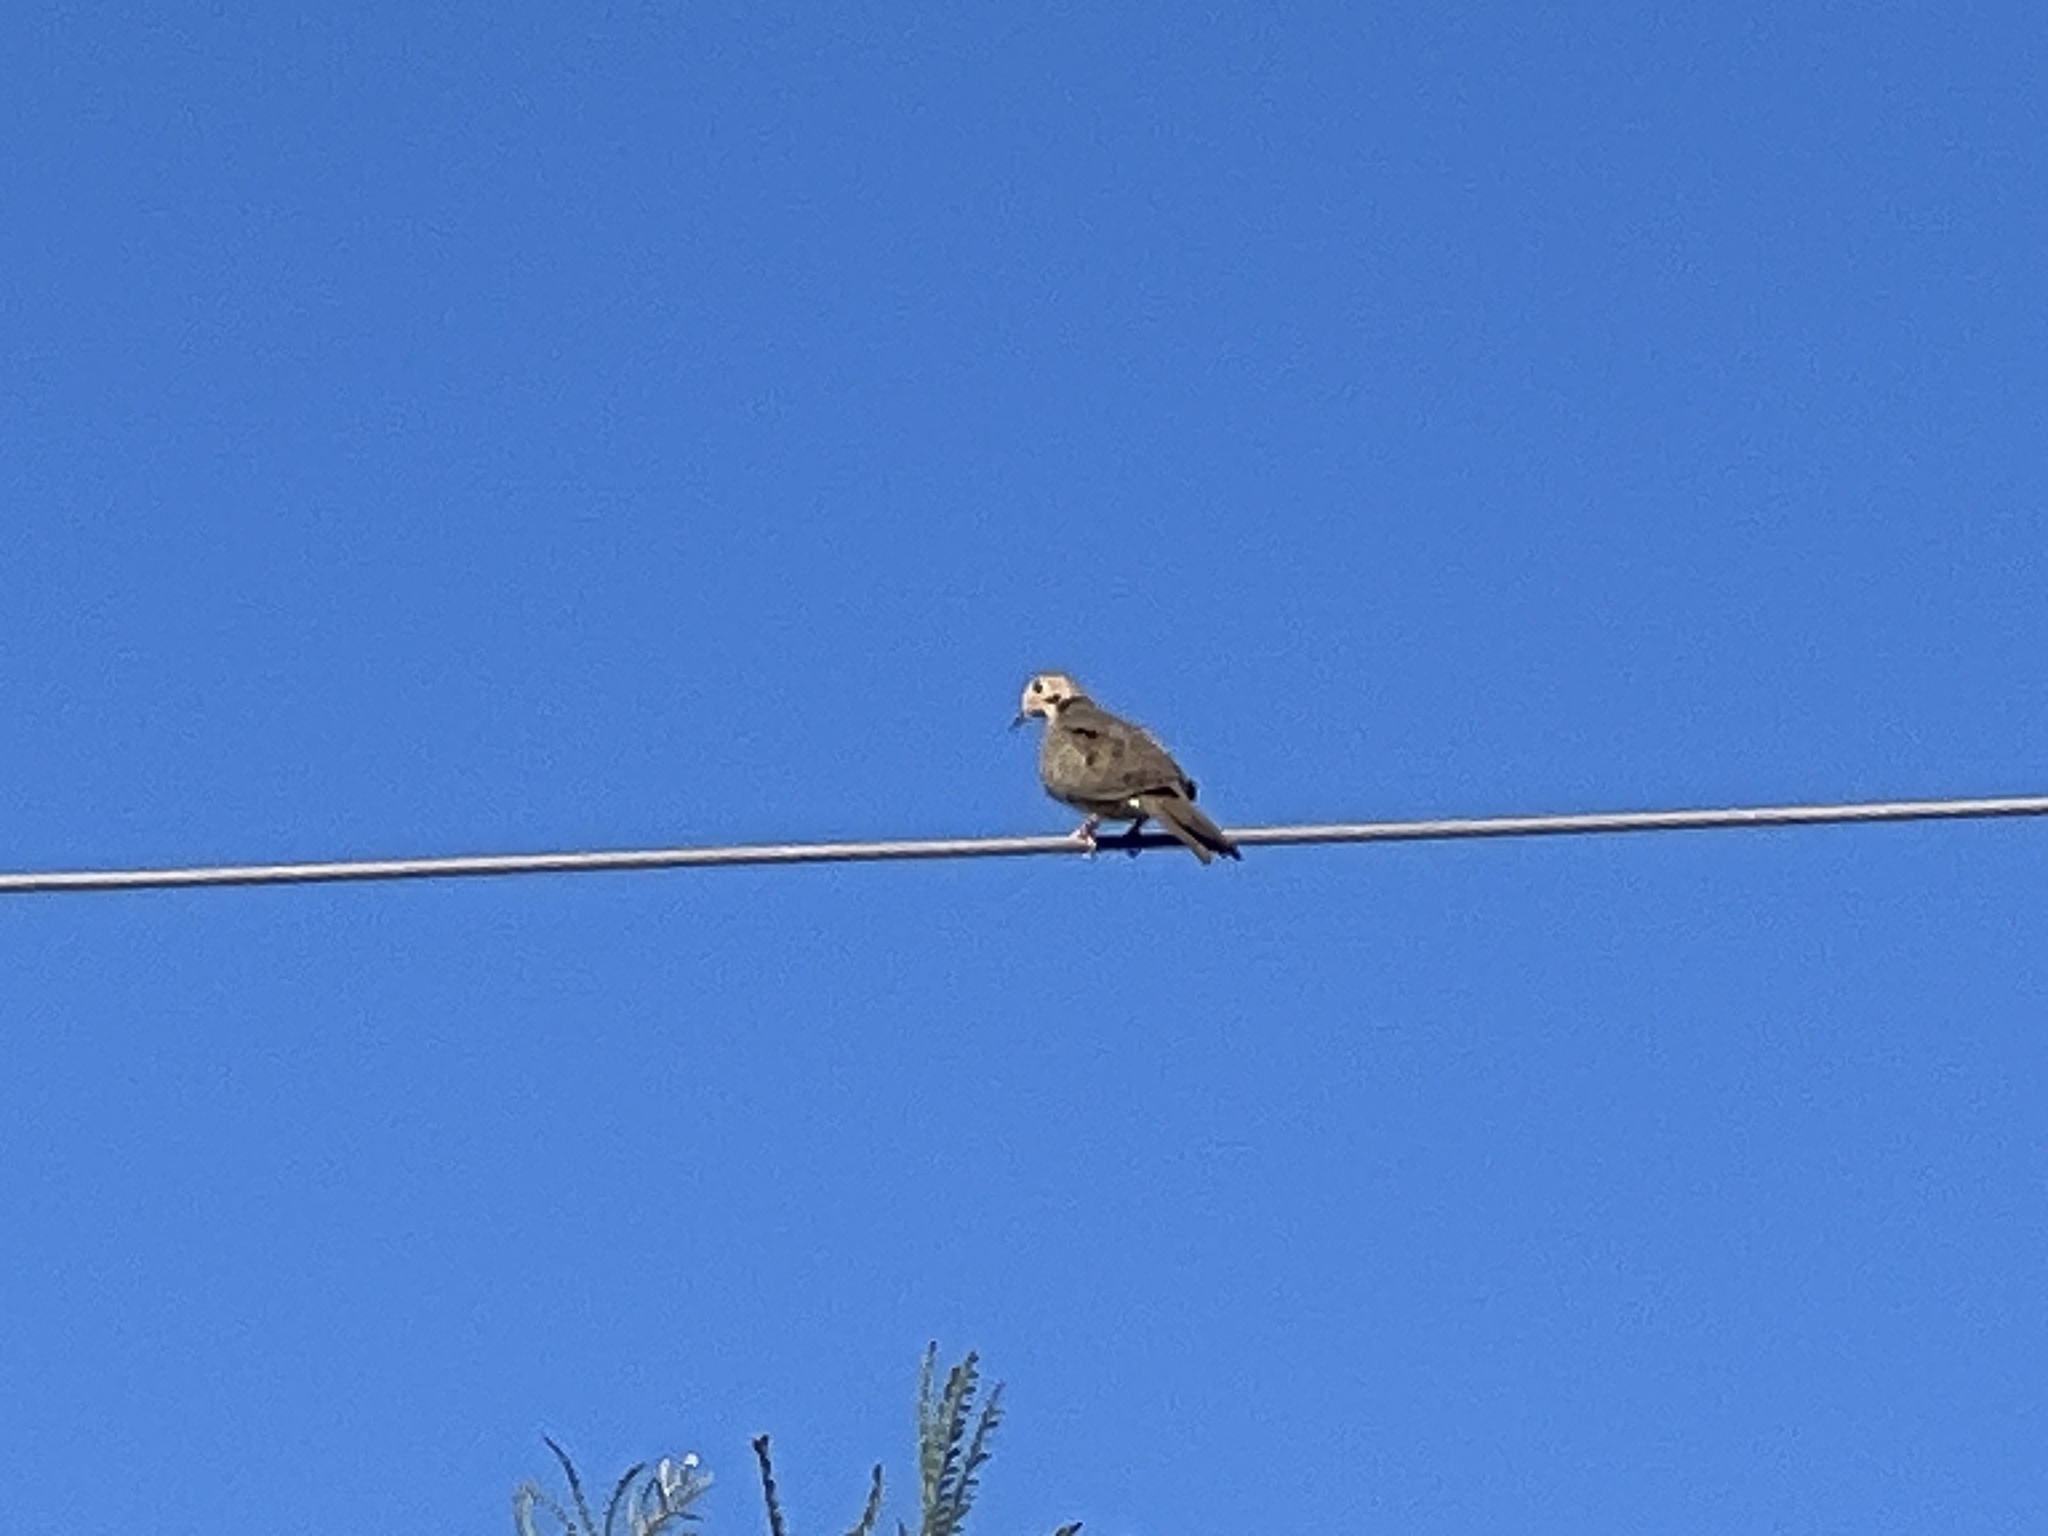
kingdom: Animalia
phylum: Chordata
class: Aves
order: Columbiformes
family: Columbidae
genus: Zenaida
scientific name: Zenaida macroura
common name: Mourning dove
